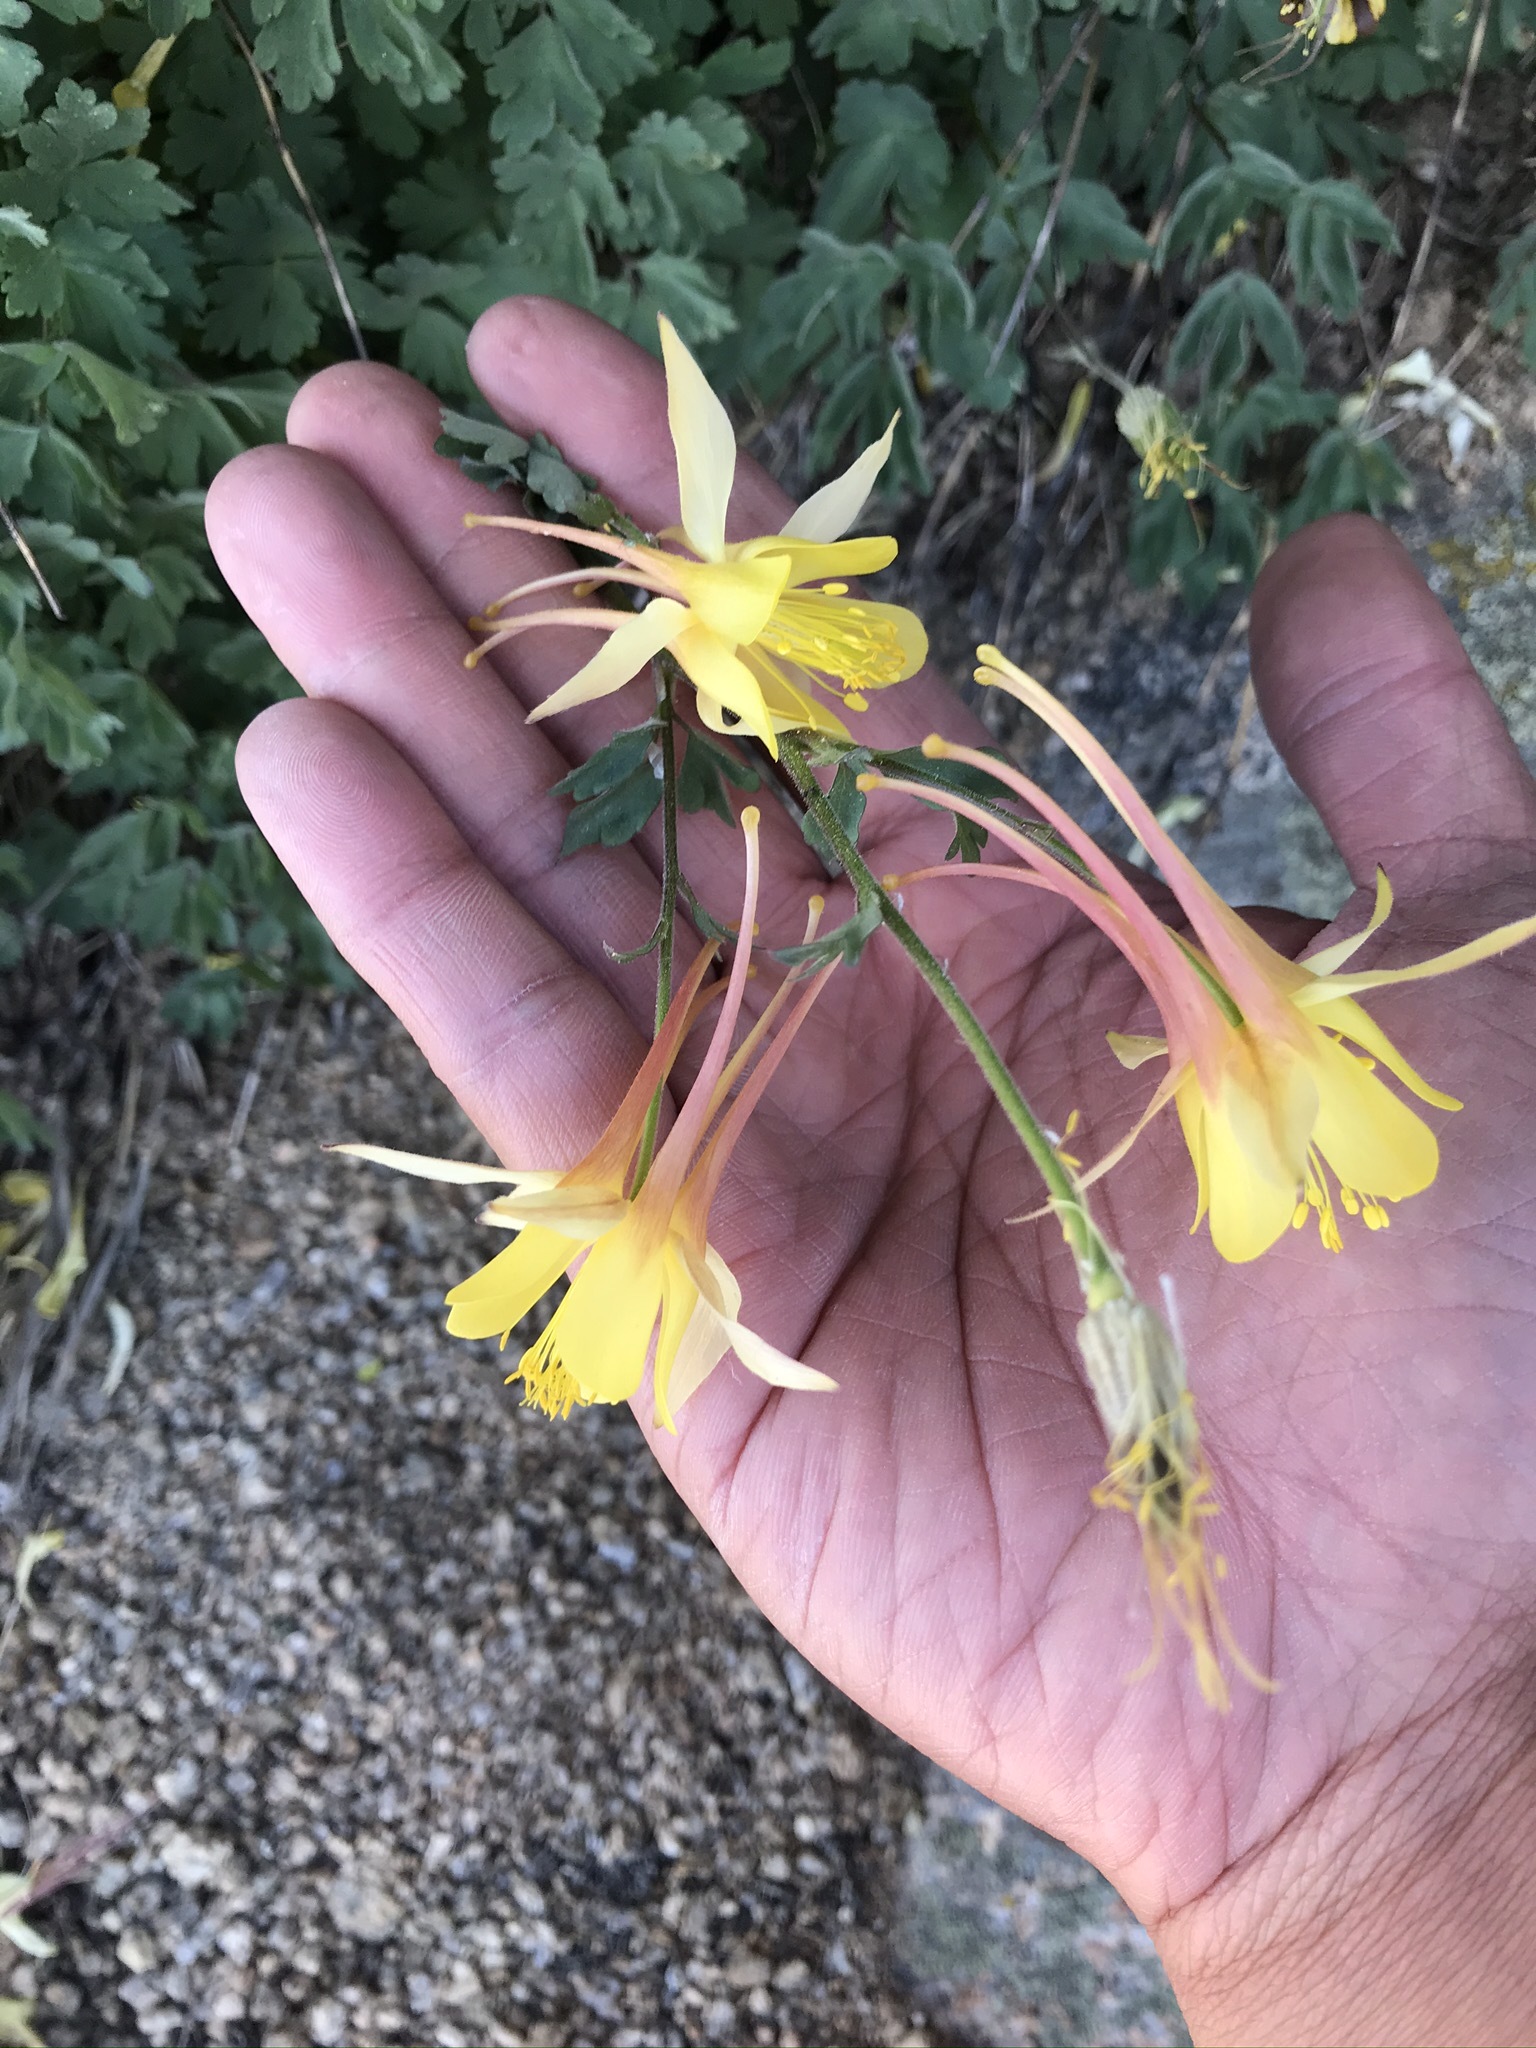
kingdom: Plantae
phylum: Tracheophyta
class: Magnoliopsida
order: Ranunculales
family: Ranunculaceae
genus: Aquilegia
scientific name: Aquilegia pubescens
